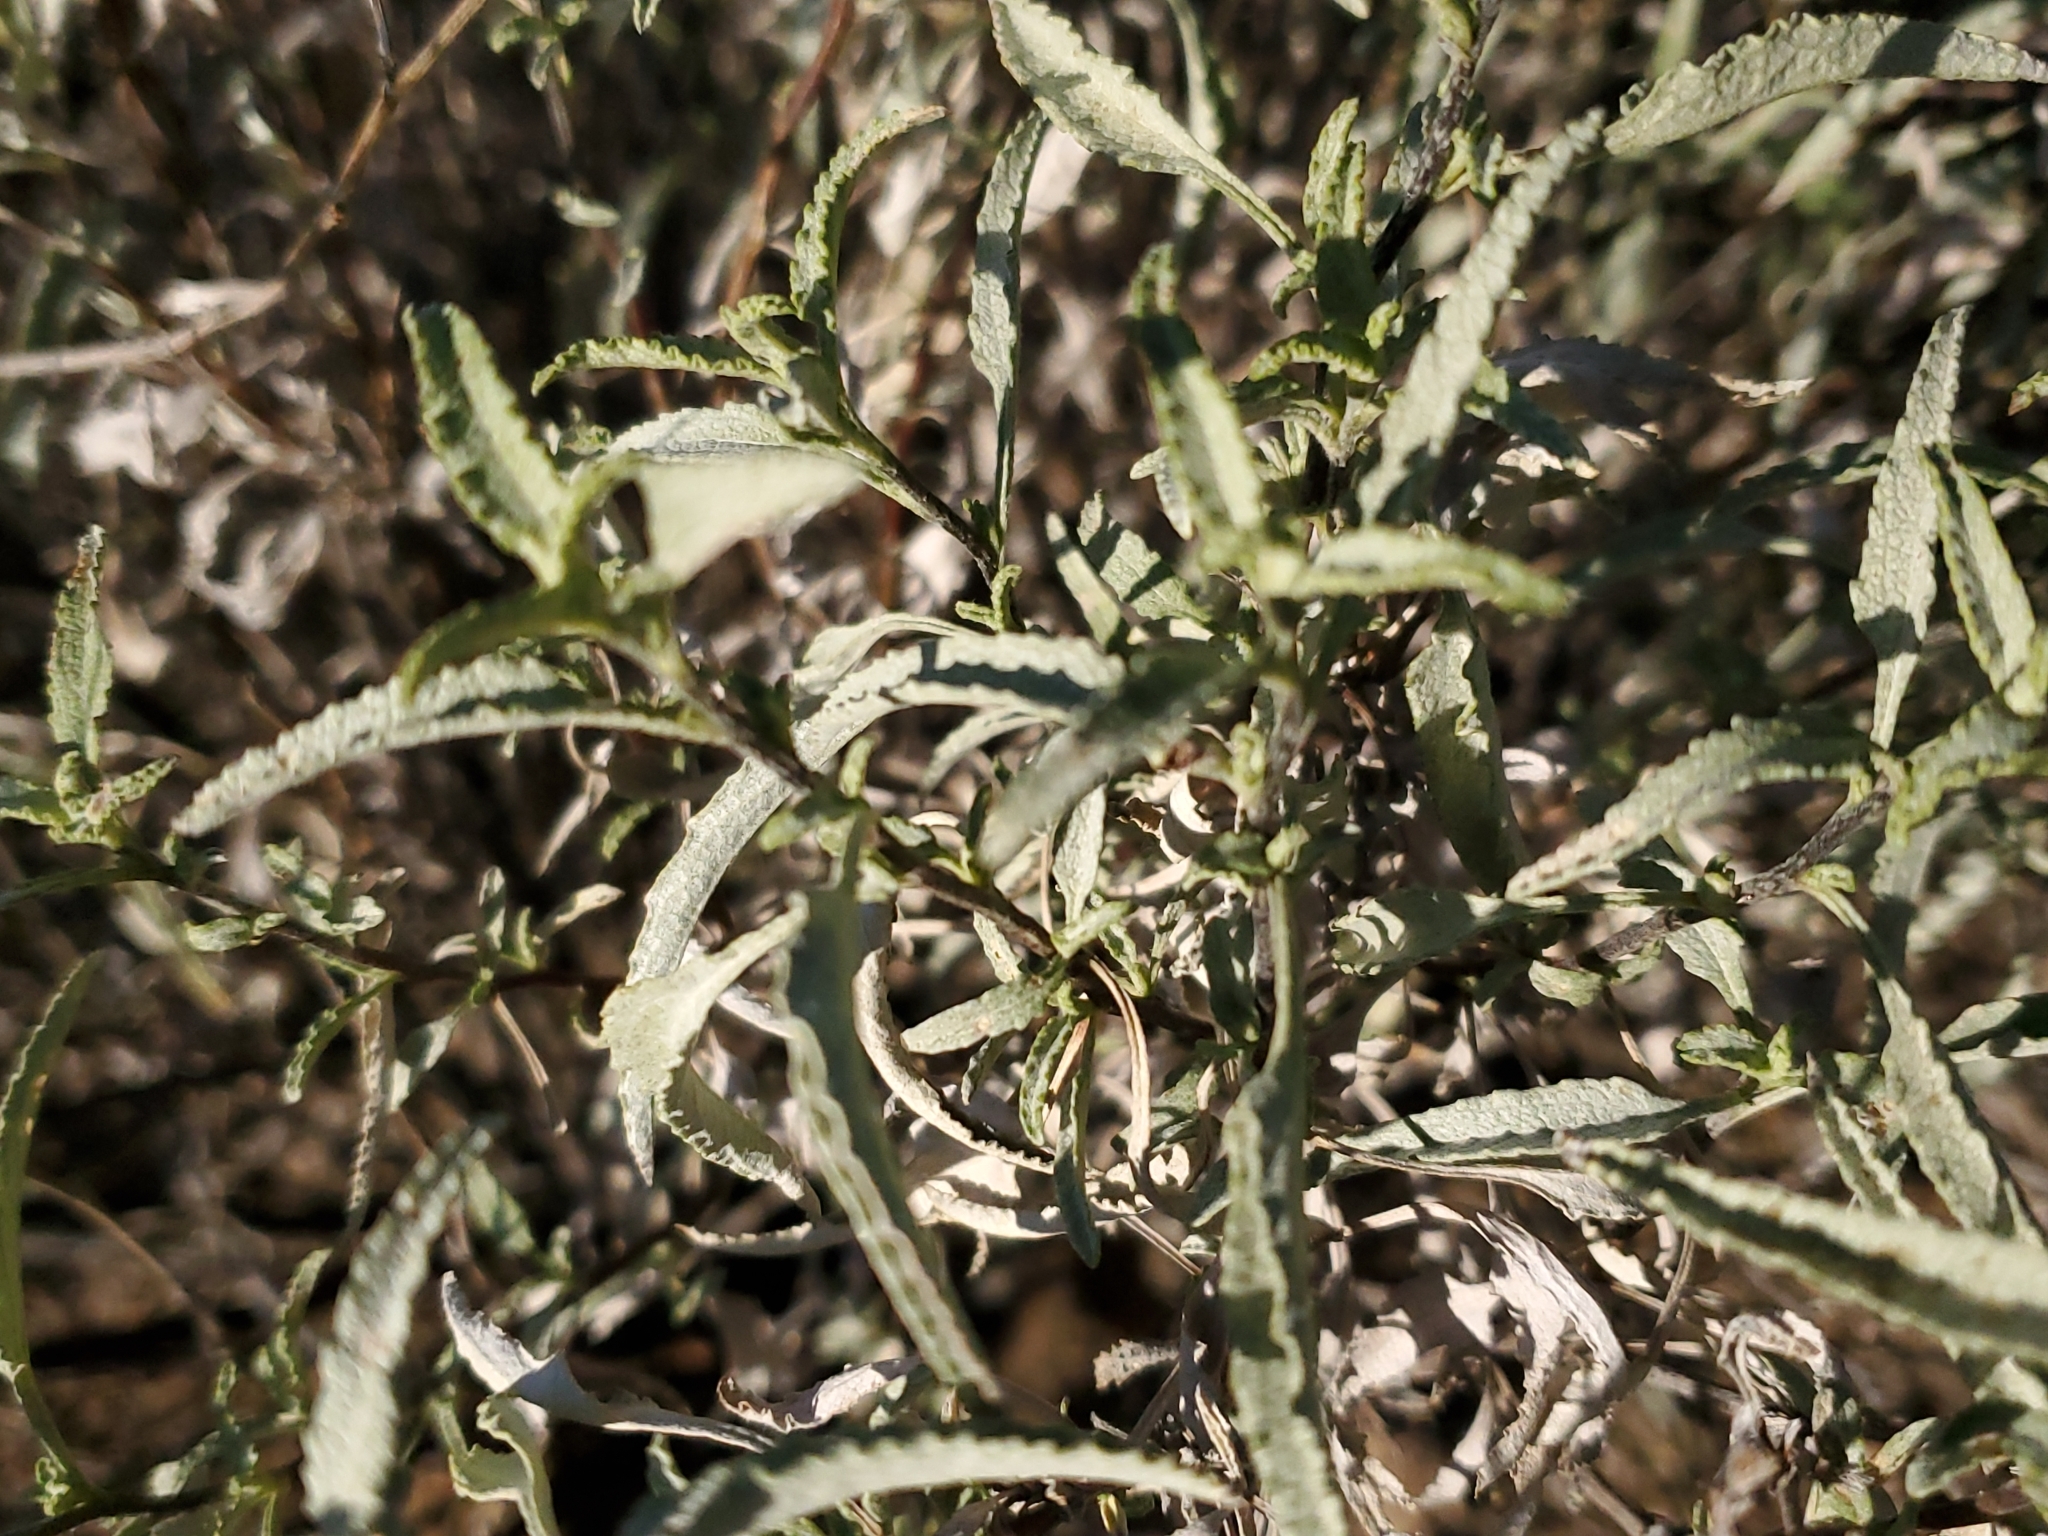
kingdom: Plantae
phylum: Tracheophyta
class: Magnoliopsida
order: Asterales
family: Asteraceae
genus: Ambrosia
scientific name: Ambrosia deltoidea
